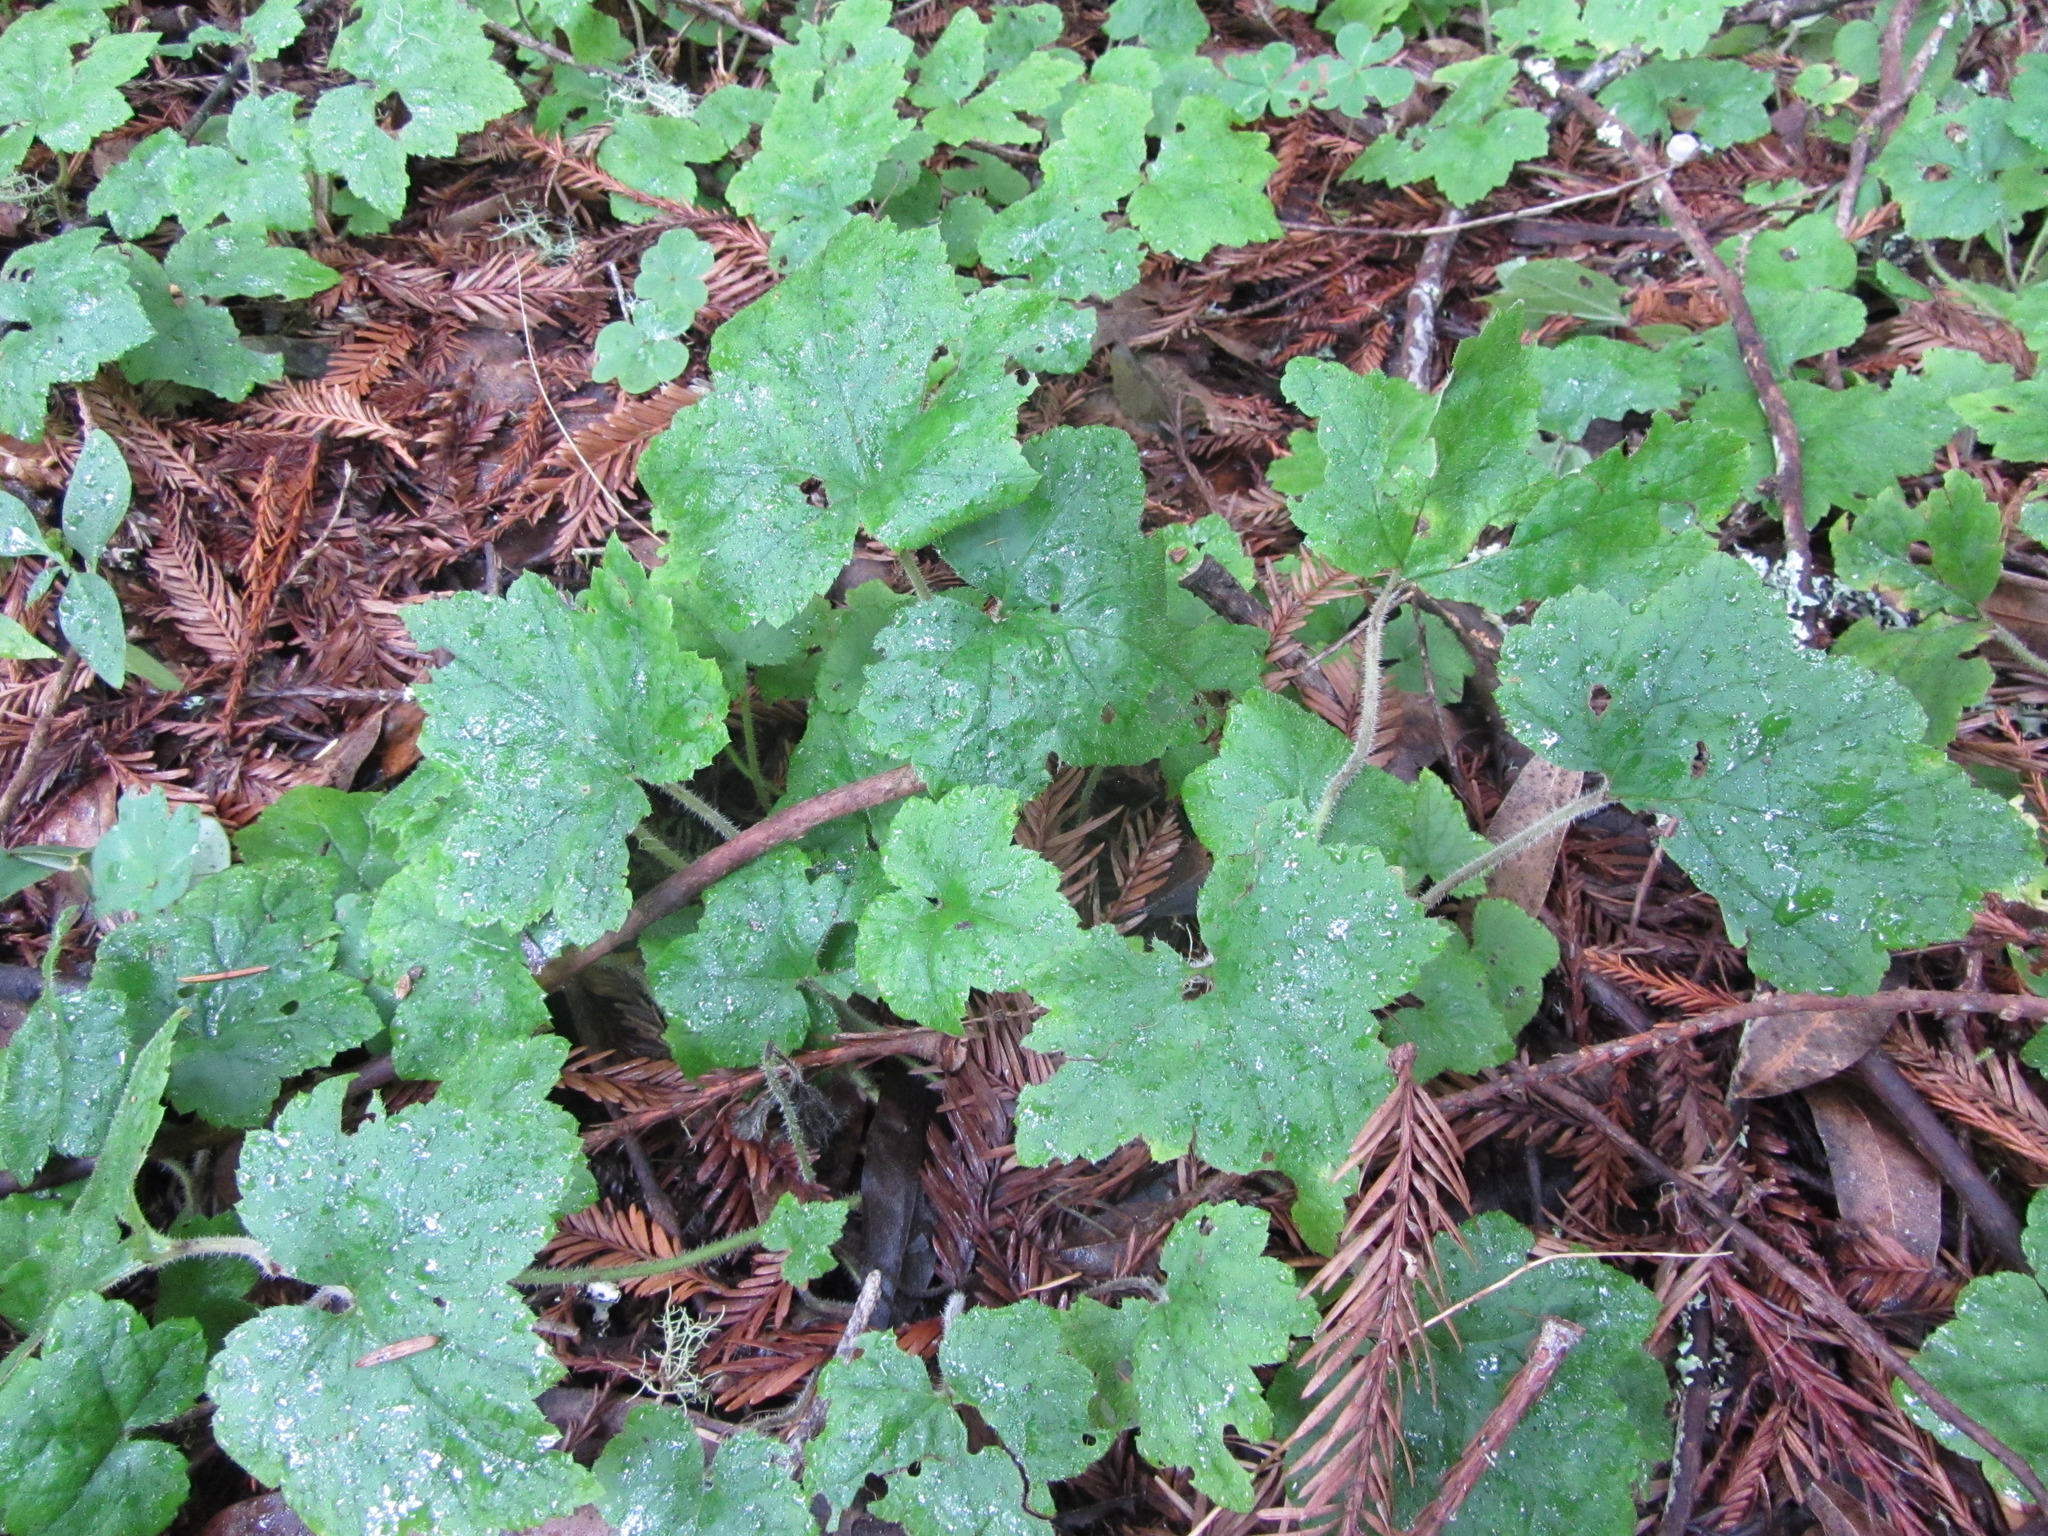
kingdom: Plantae
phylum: Tracheophyta
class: Magnoliopsida
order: Saxifragales
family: Saxifragaceae
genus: Tiarella
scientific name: Tiarella trifoliata
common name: Sugar-scoop
